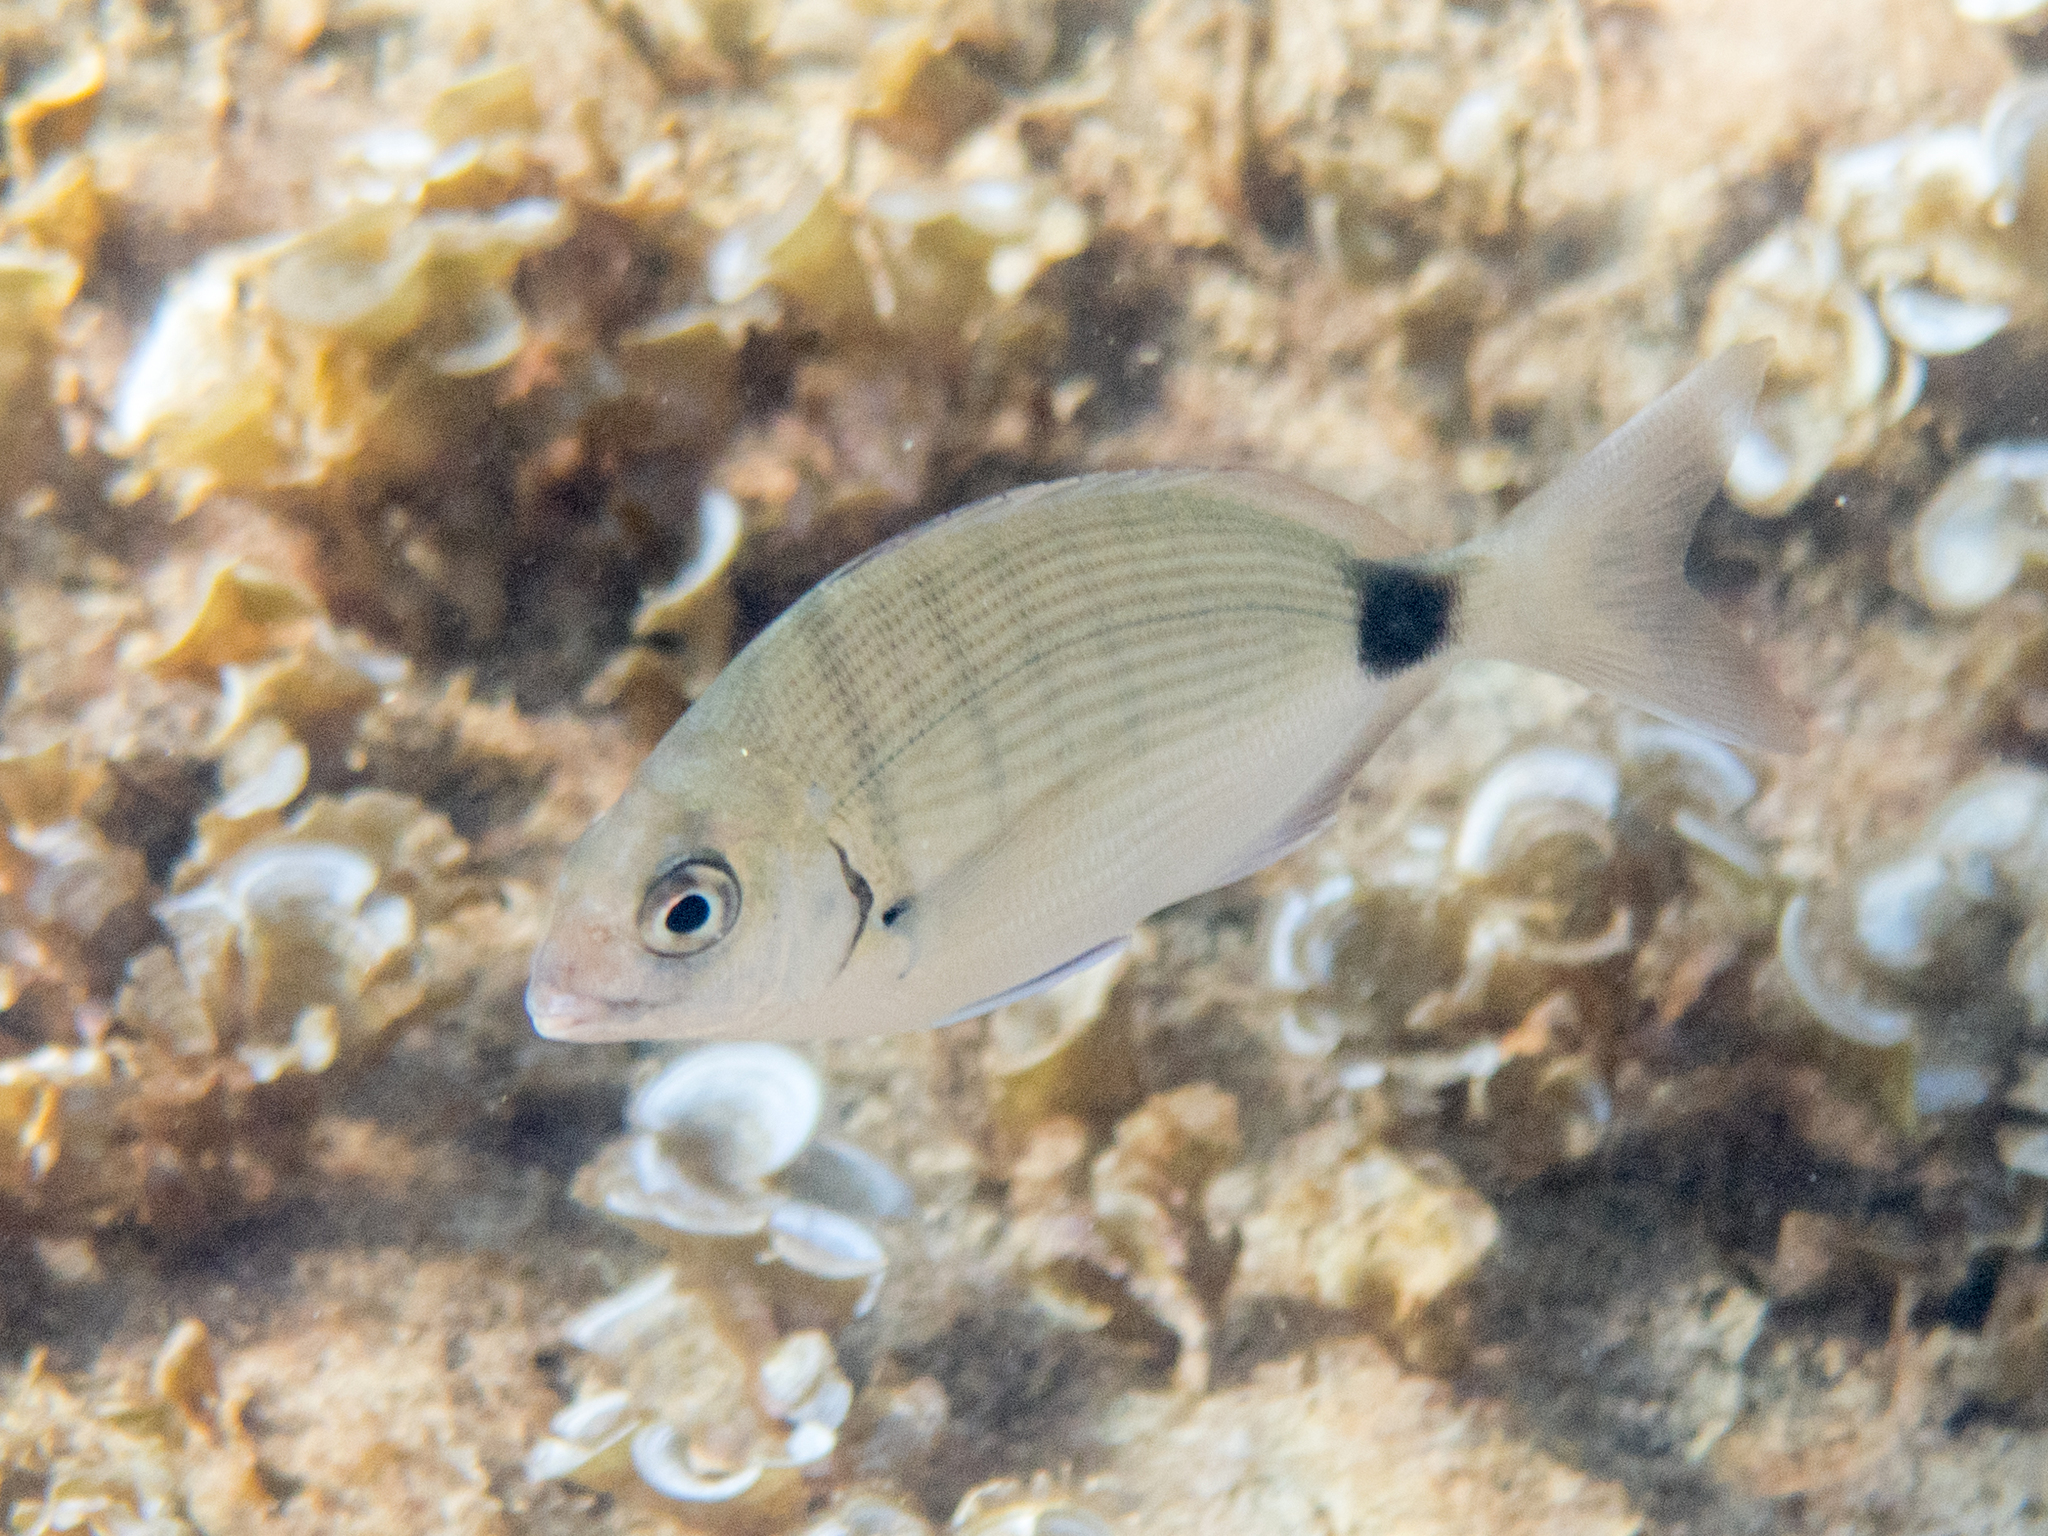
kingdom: Animalia
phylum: Chordata
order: Perciformes
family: Sparidae
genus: Diplodus
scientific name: Diplodus sargus
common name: White seabream
